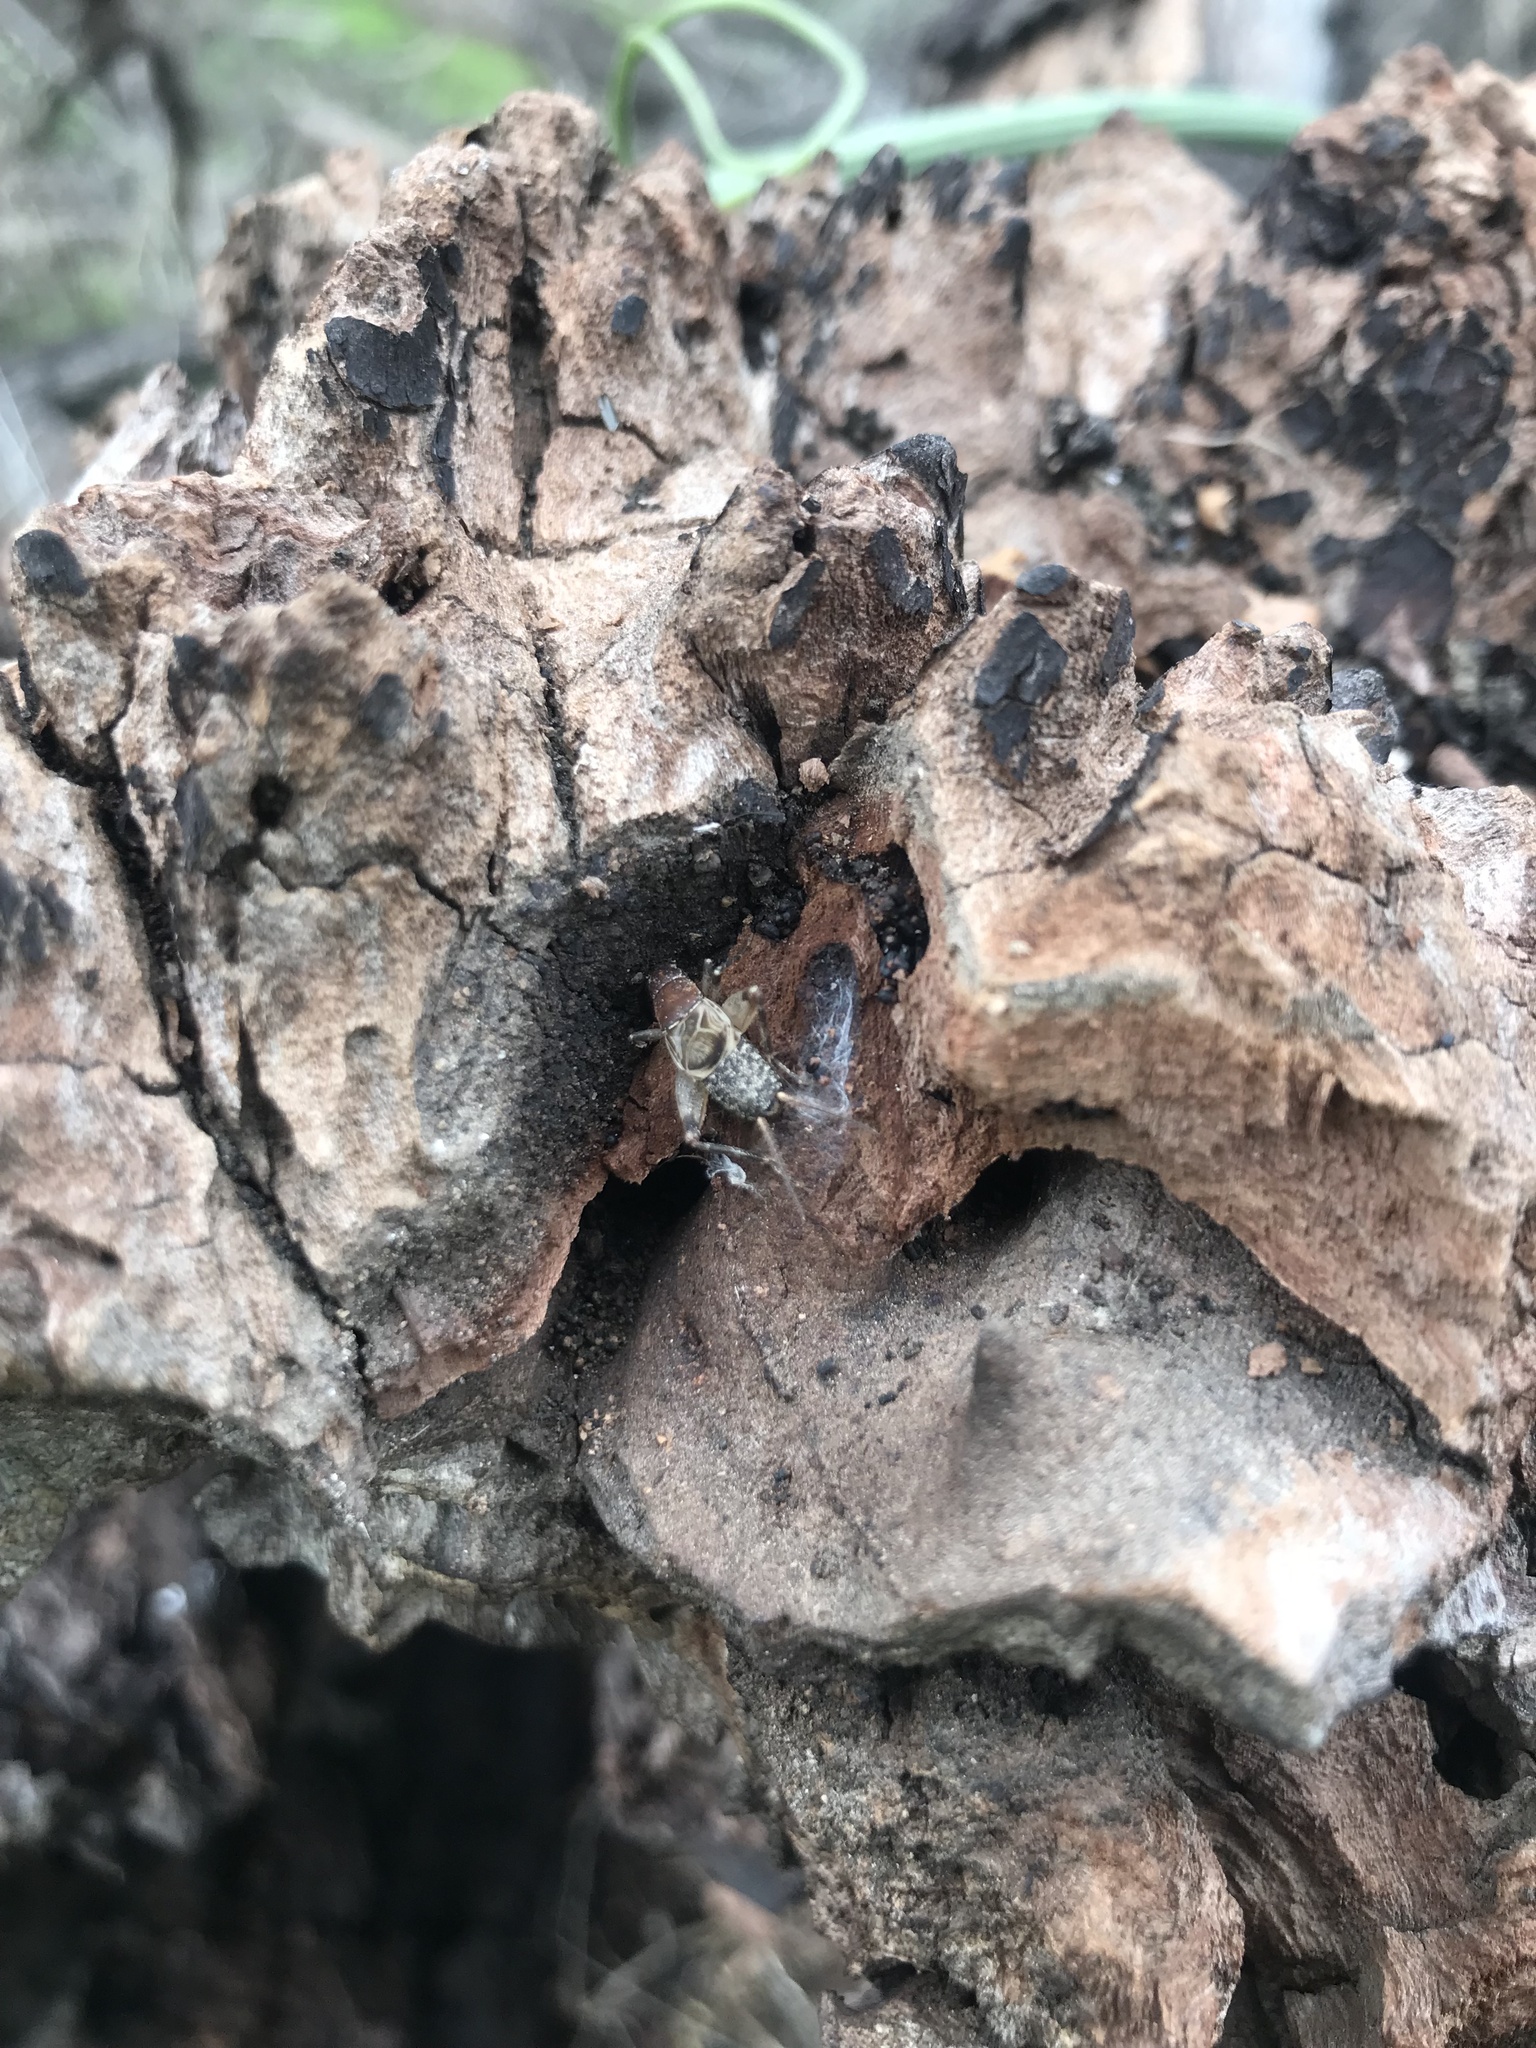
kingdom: Animalia
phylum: Arthropoda
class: Insecta
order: Orthoptera
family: Mogoplistidae
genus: Hoplosphyrum
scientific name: Hoplosphyrum boreale
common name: Long-winged scaly cricket
